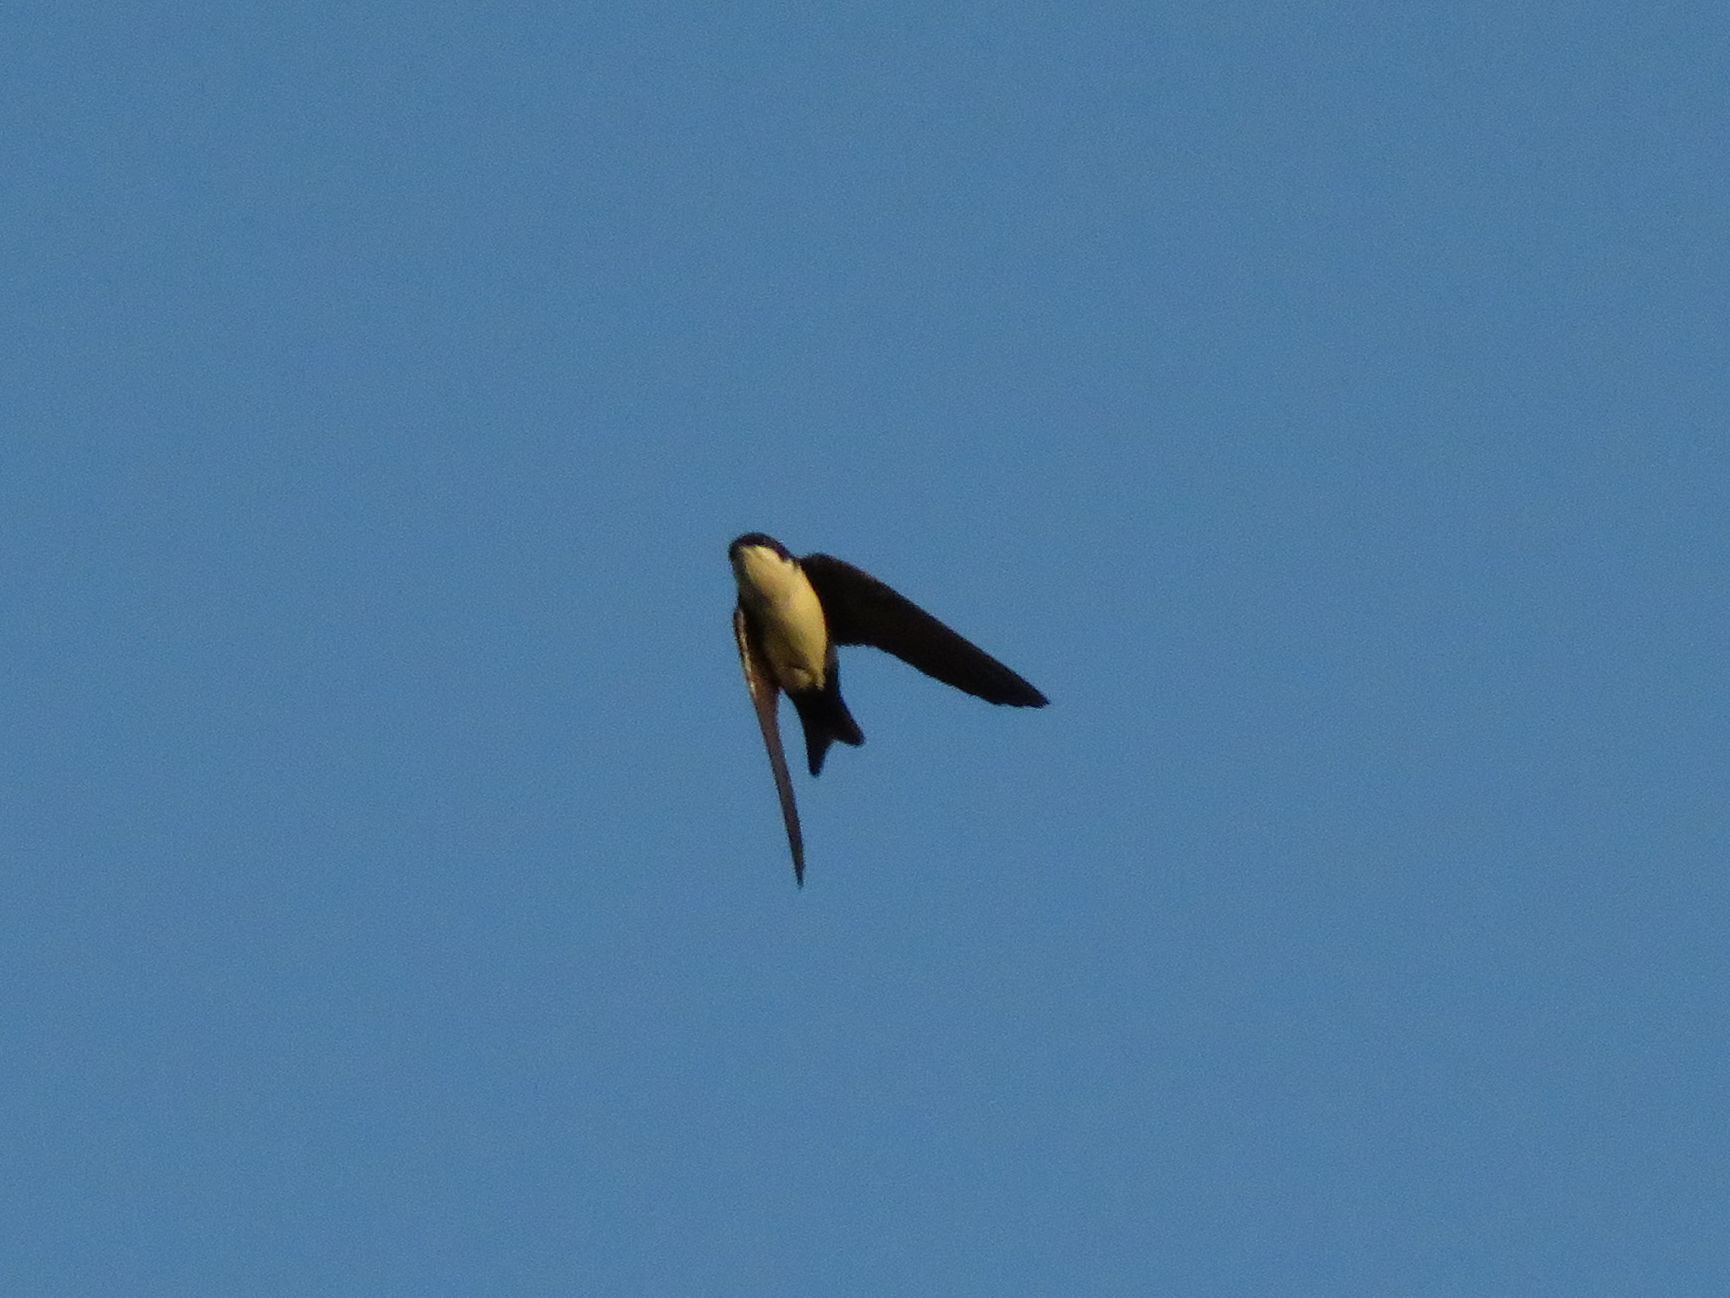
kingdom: Animalia
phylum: Chordata
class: Aves
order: Passeriformes
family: Hirundinidae
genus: Notiochelidon
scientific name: Notiochelidon cyanoleuca
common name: Blue-and-white swallow
